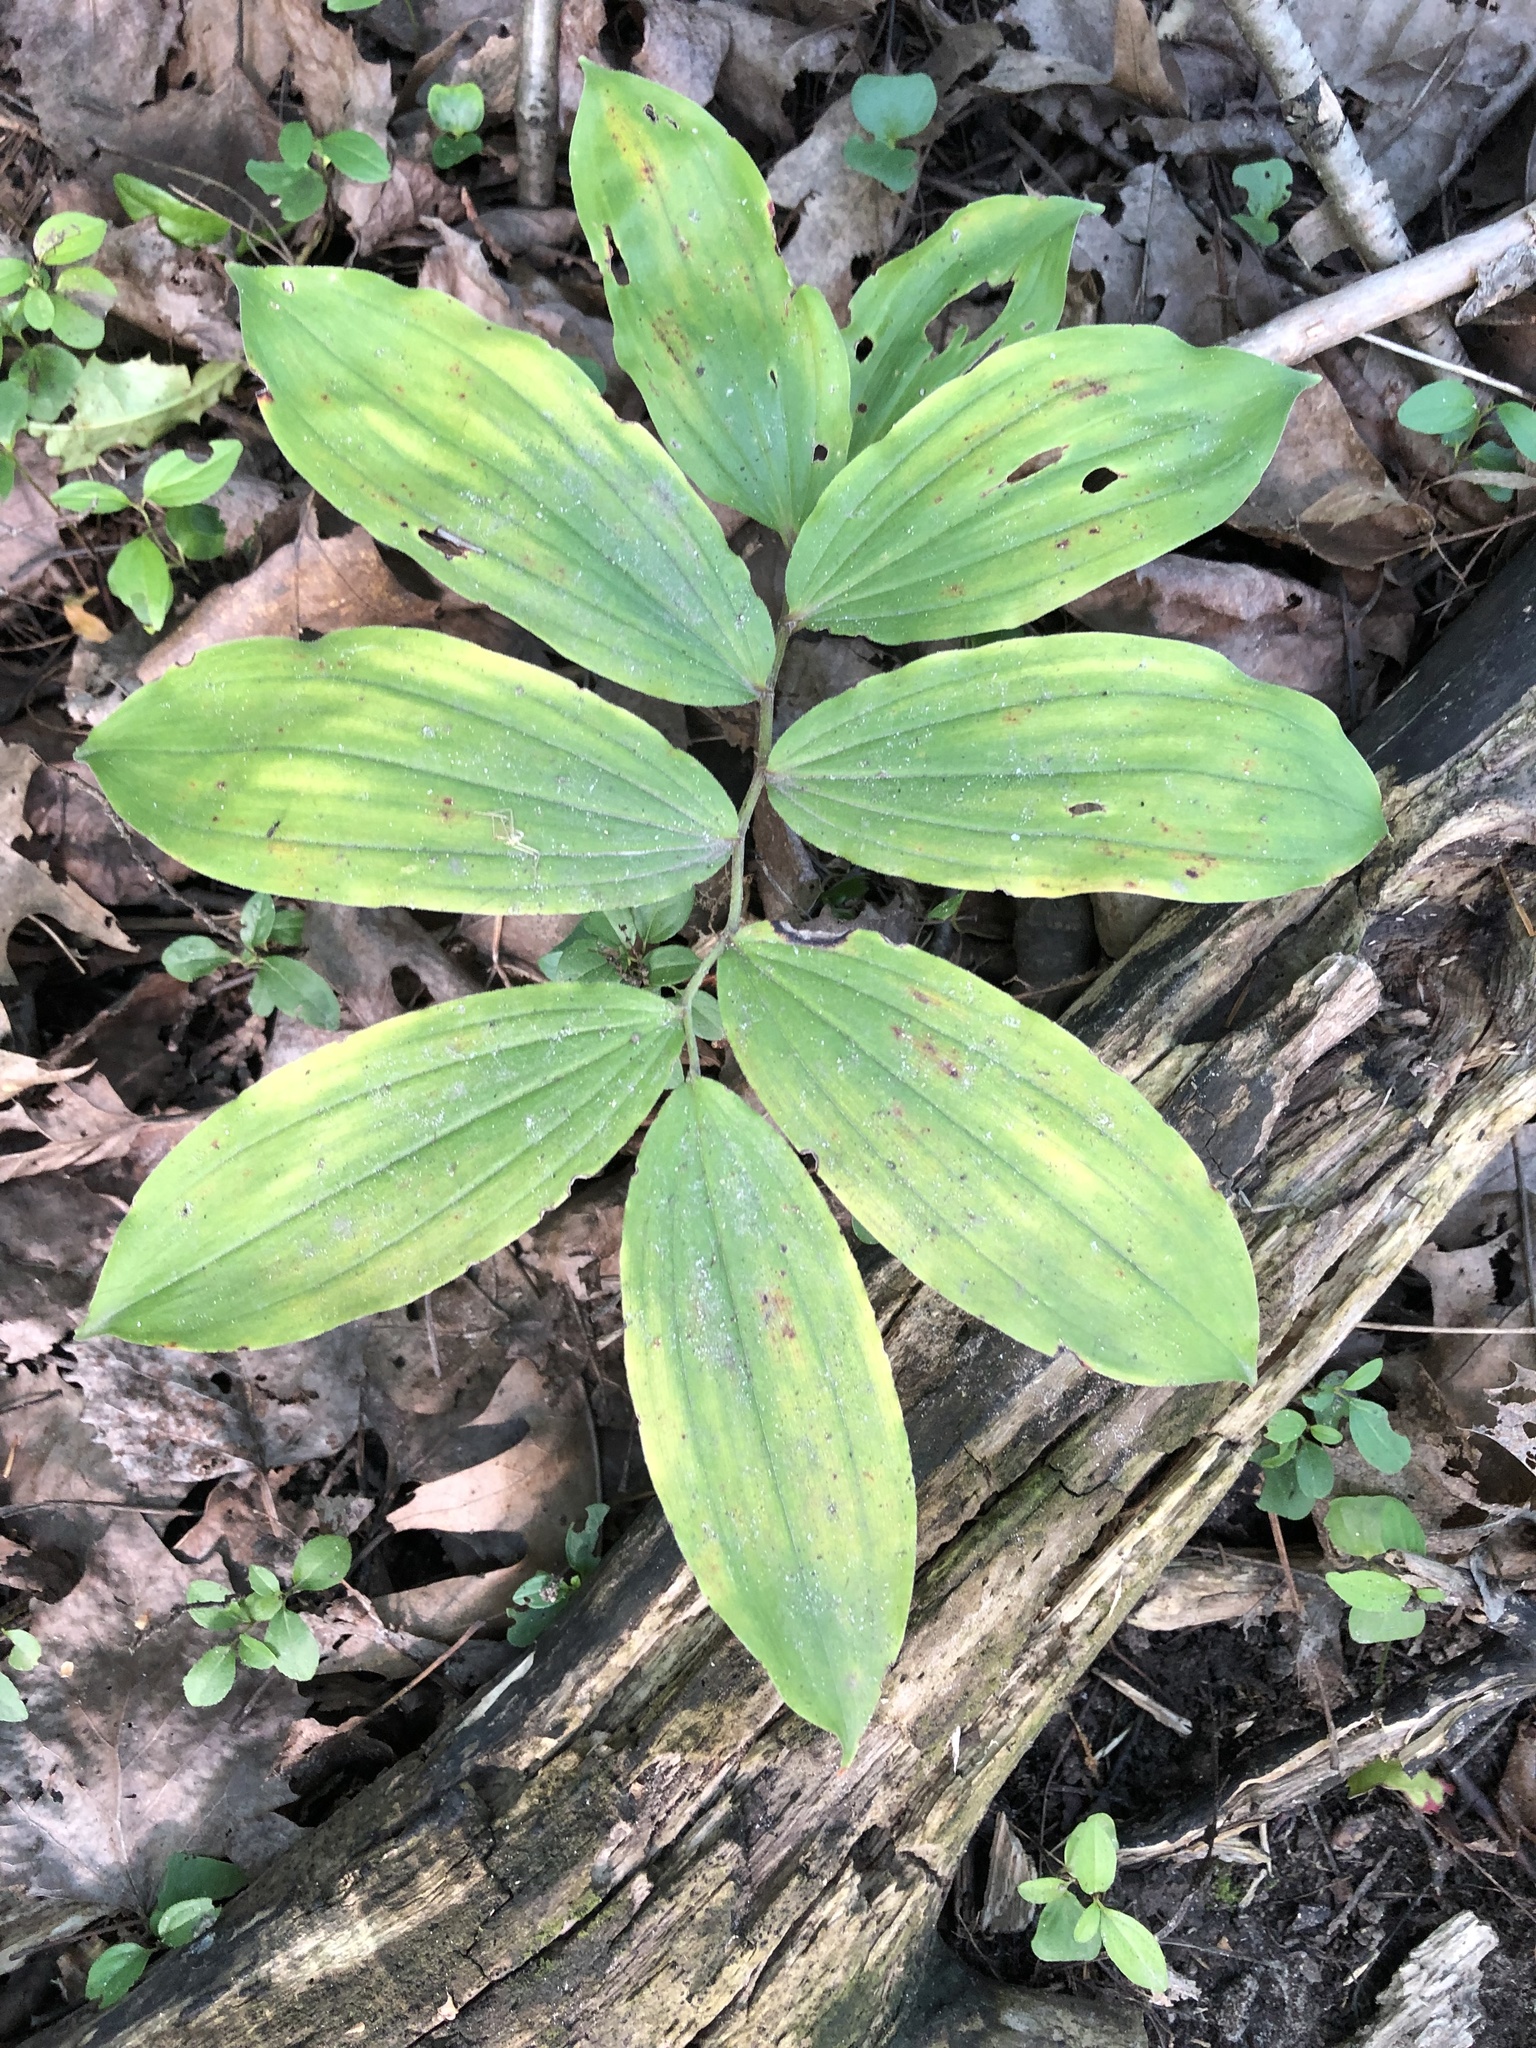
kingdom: Plantae
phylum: Tracheophyta
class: Liliopsida
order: Asparagales
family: Asparagaceae
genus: Maianthemum
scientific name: Maianthemum racemosum
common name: False spikenard
